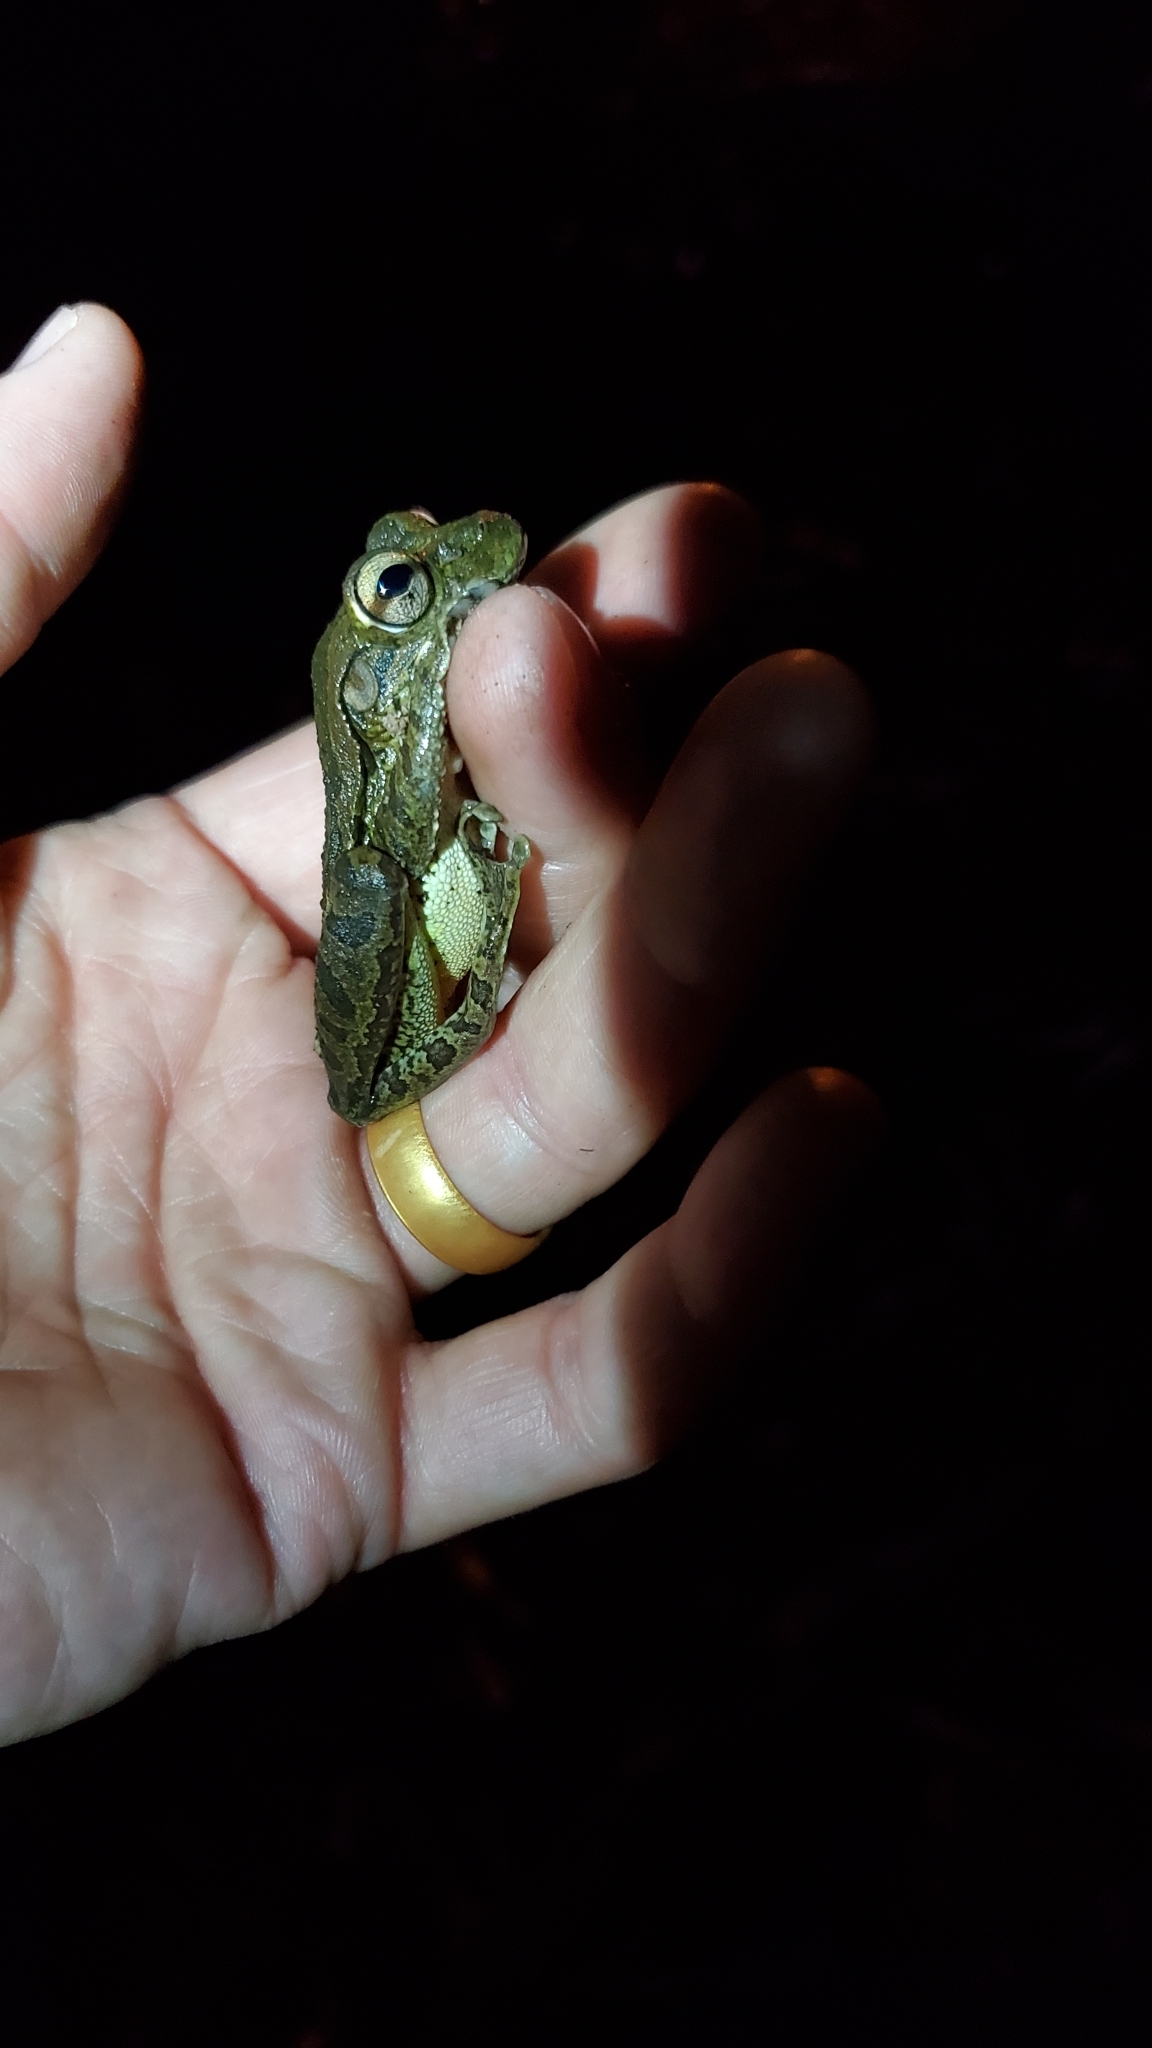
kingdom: Animalia
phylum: Chordata
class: Amphibia
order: Anura
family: Hylidae
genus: Osteopilus
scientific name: Osteopilus septentrionalis
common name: Cuban treefrog
